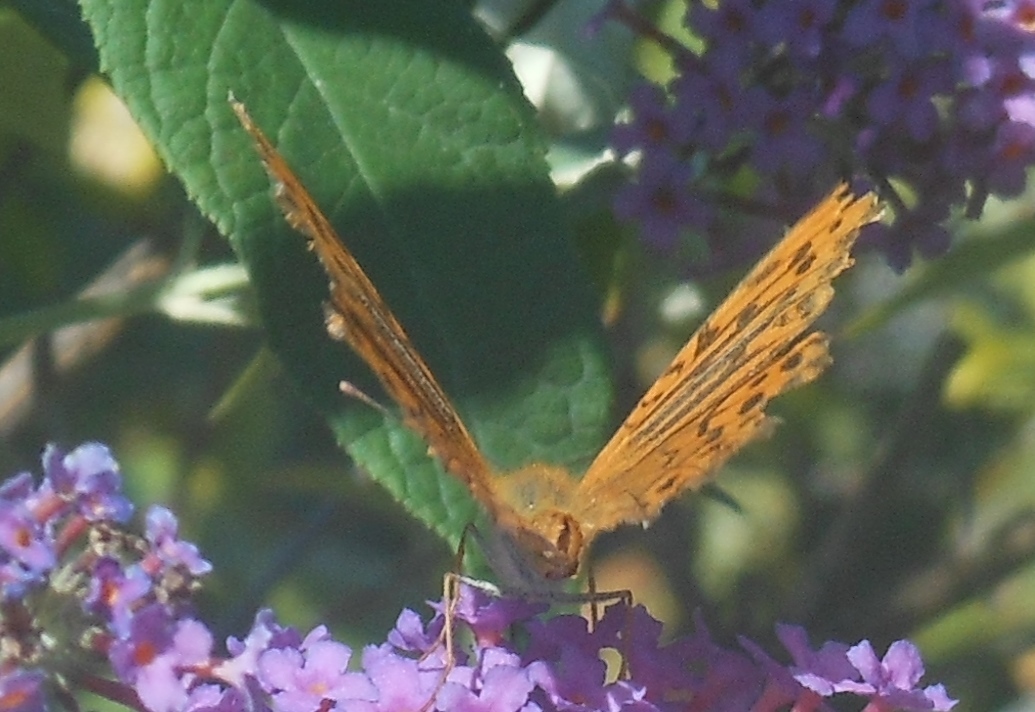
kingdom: Animalia
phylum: Arthropoda
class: Insecta
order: Lepidoptera
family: Nymphalidae
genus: Argynnis
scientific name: Argynnis paphia
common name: Silver-washed fritillary
